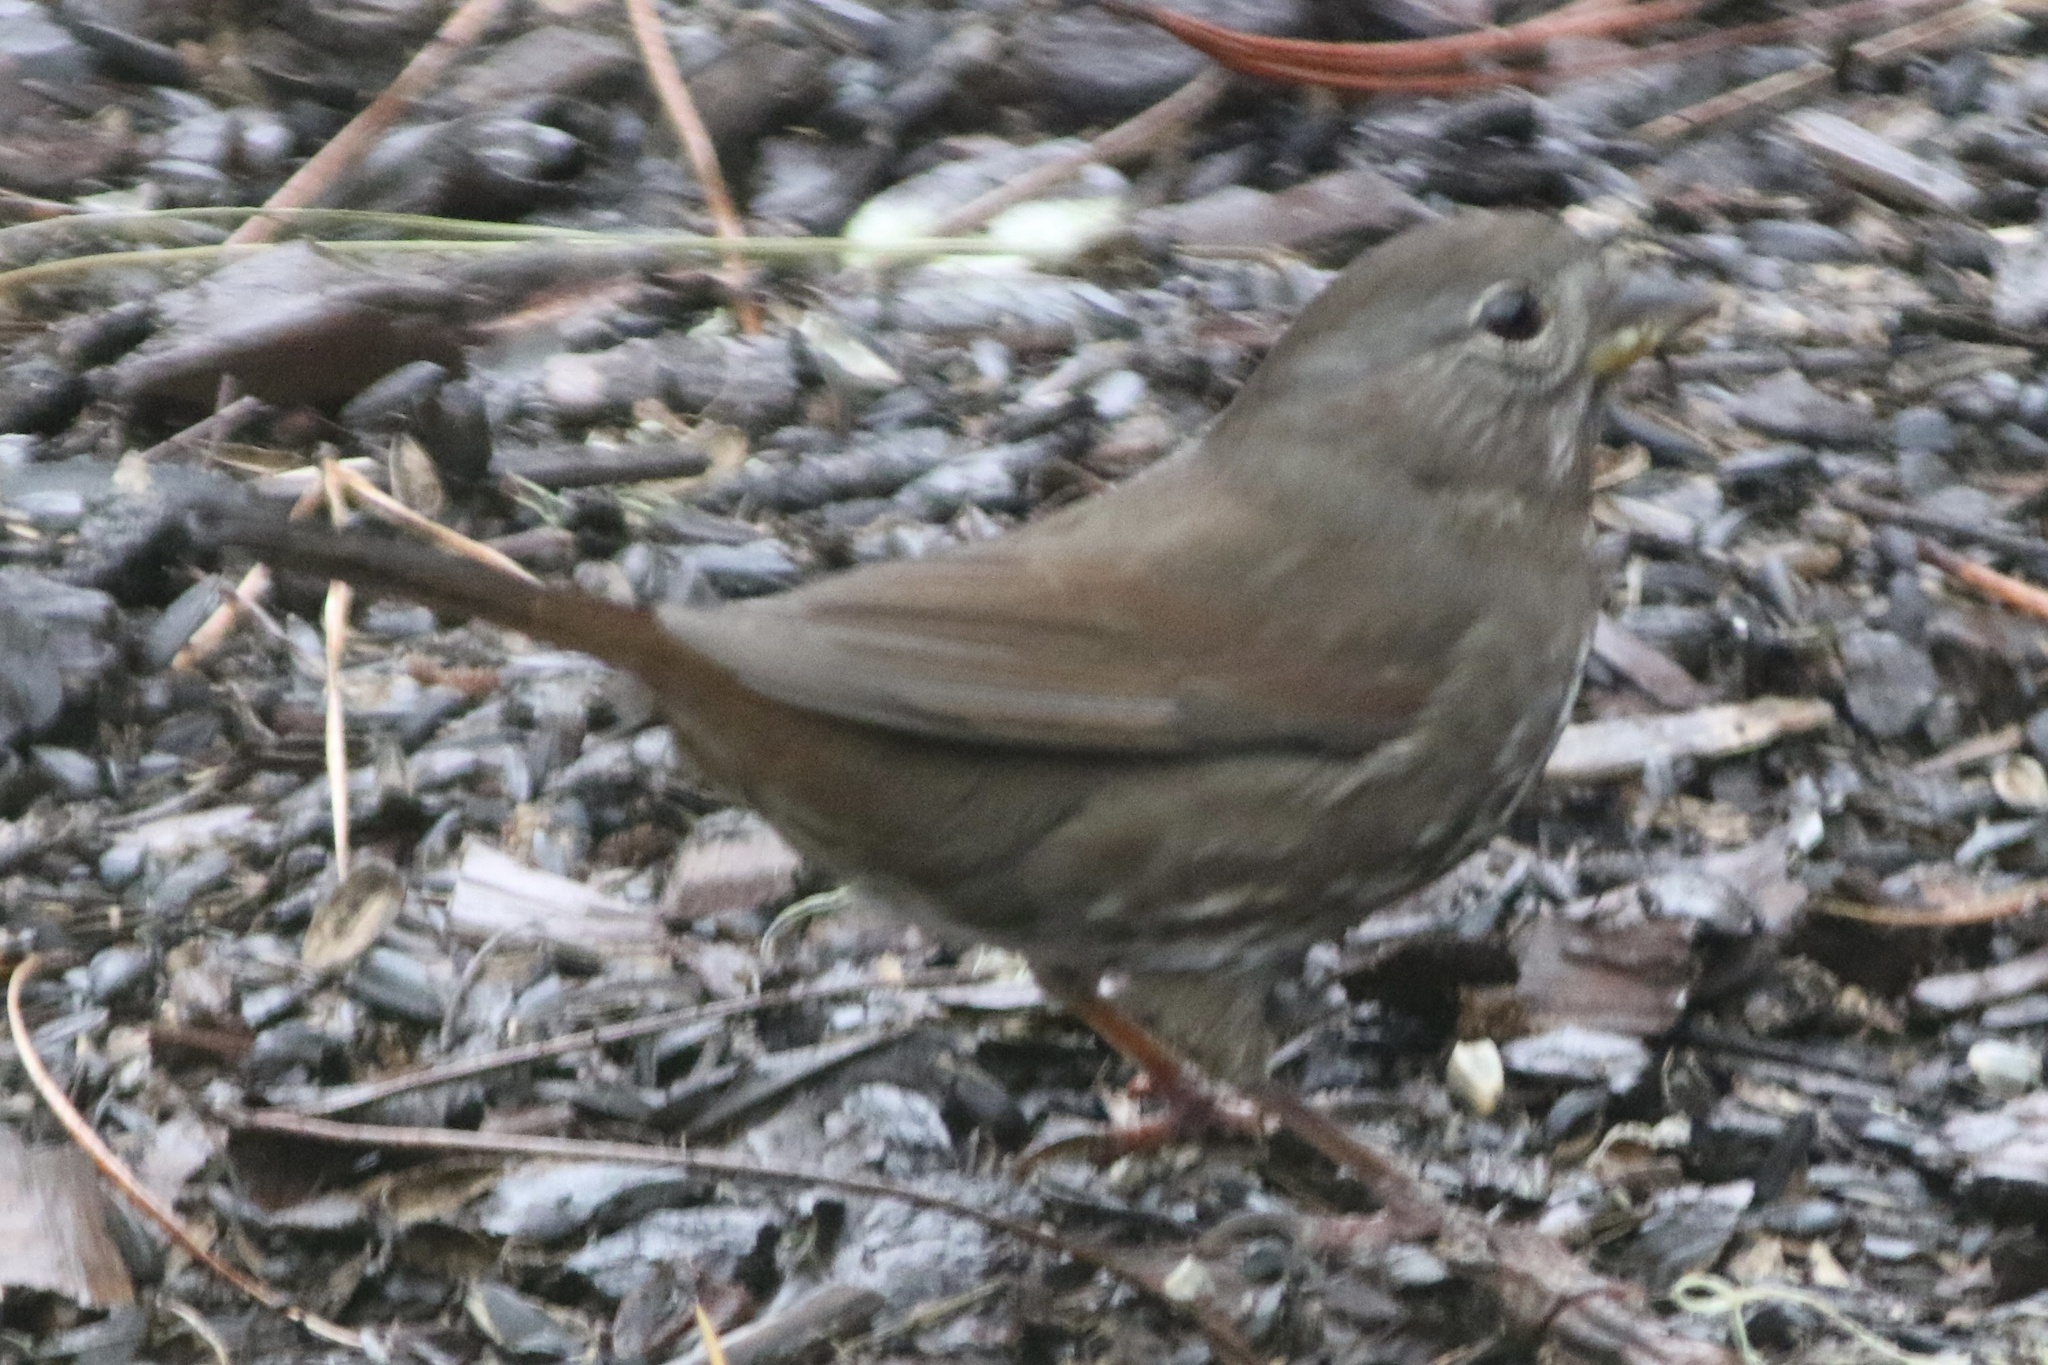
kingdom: Animalia
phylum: Chordata
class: Aves
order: Passeriformes
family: Passerellidae
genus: Passerella
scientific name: Passerella iliaca
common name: Fox sparrow
